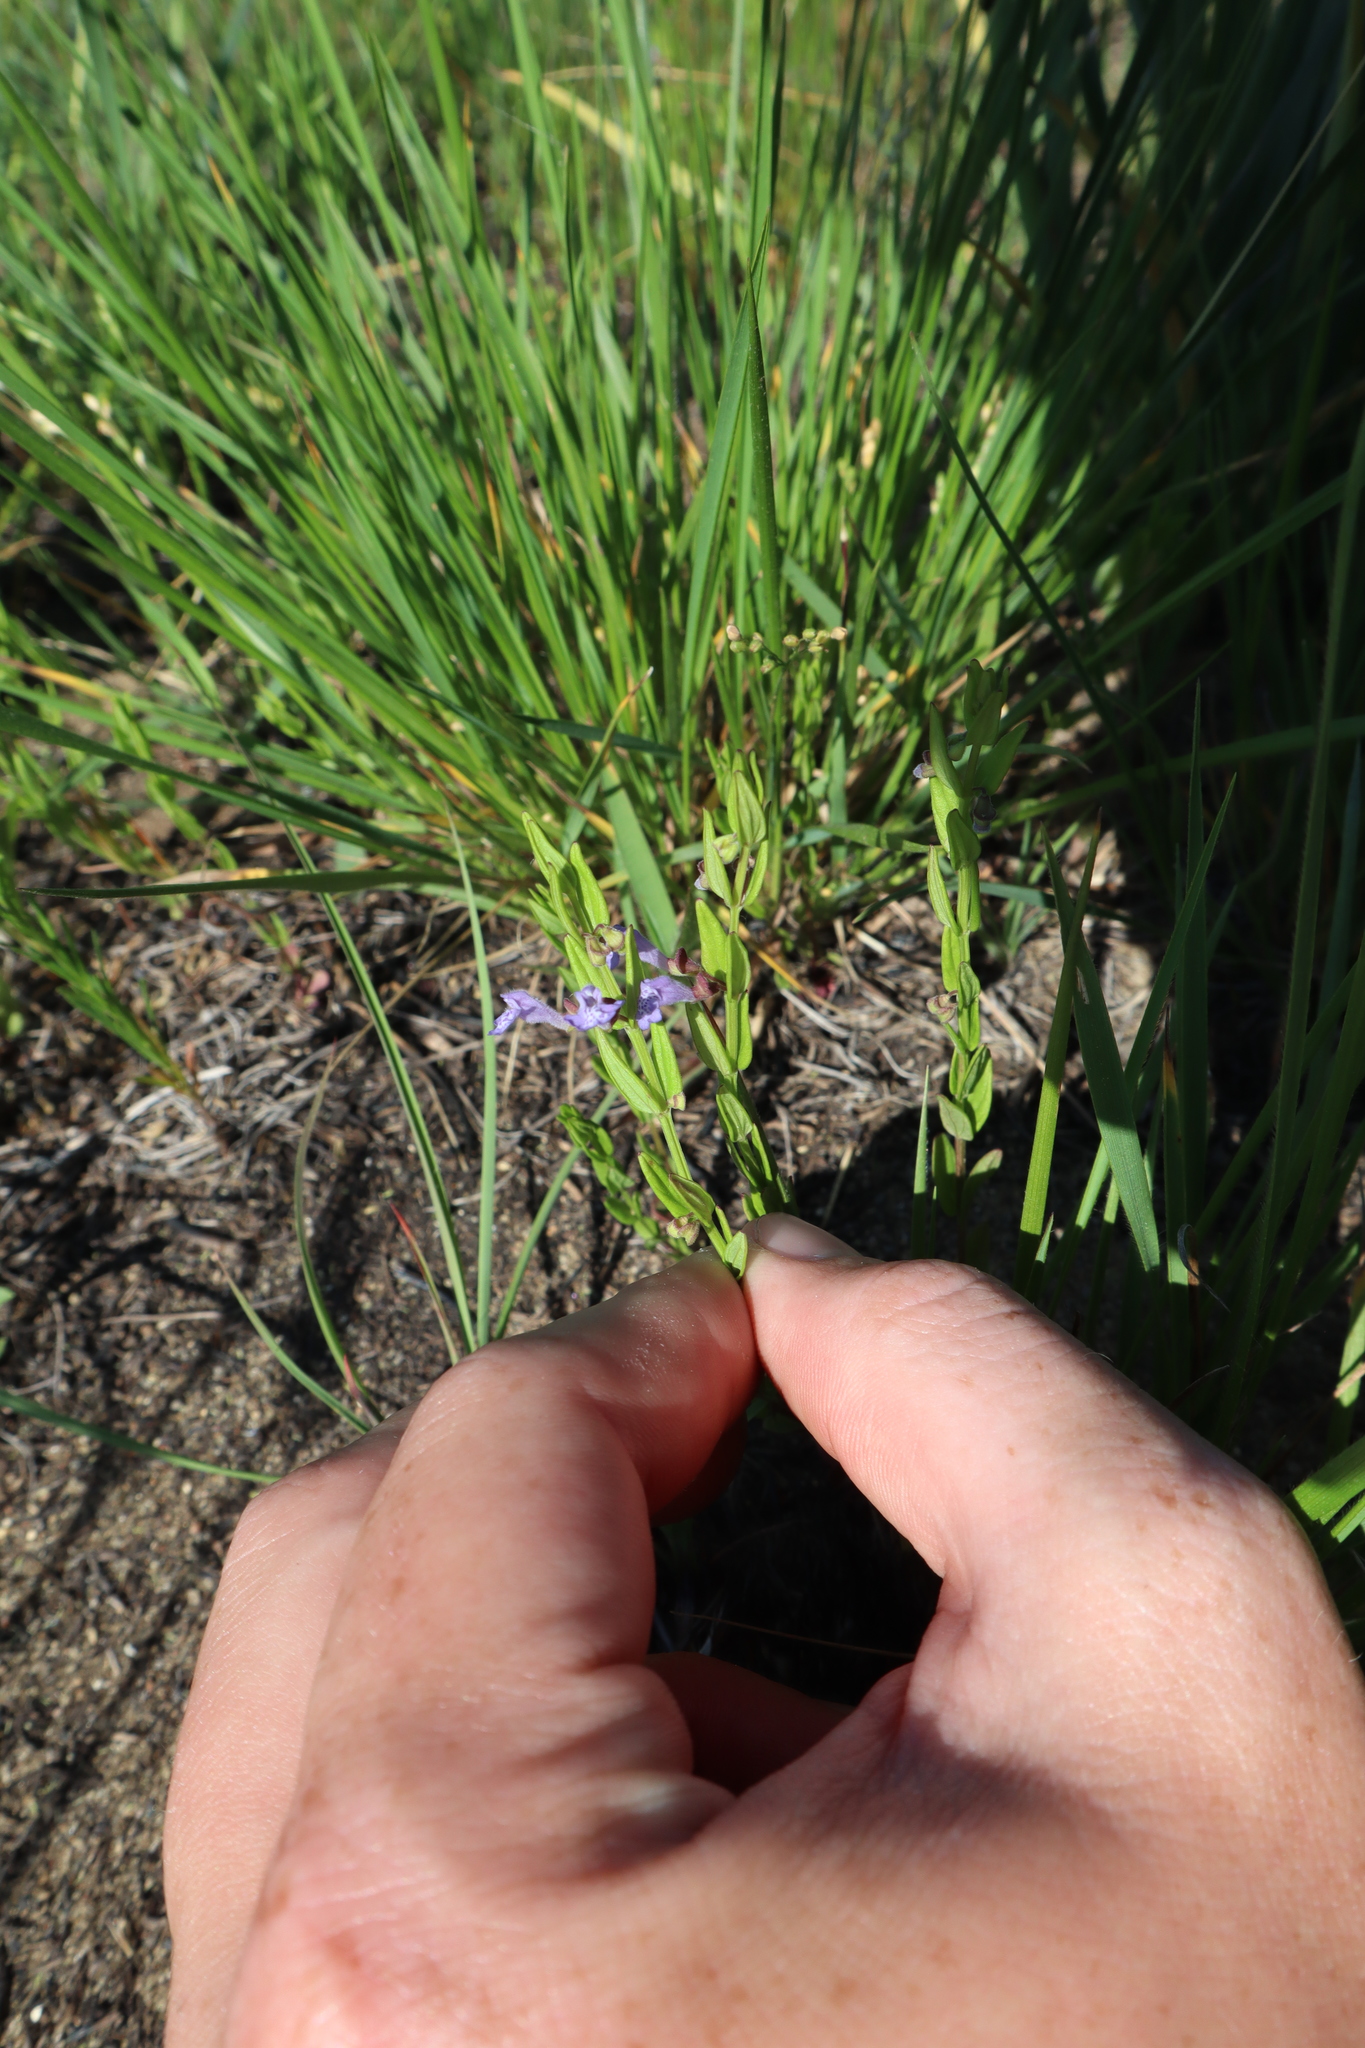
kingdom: Plantae
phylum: Tracheophyta
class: Magnoliopsida
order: Lamiales
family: Lamiaceae
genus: Scutellaria
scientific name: Scutellaria parvula
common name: Little scullcap
